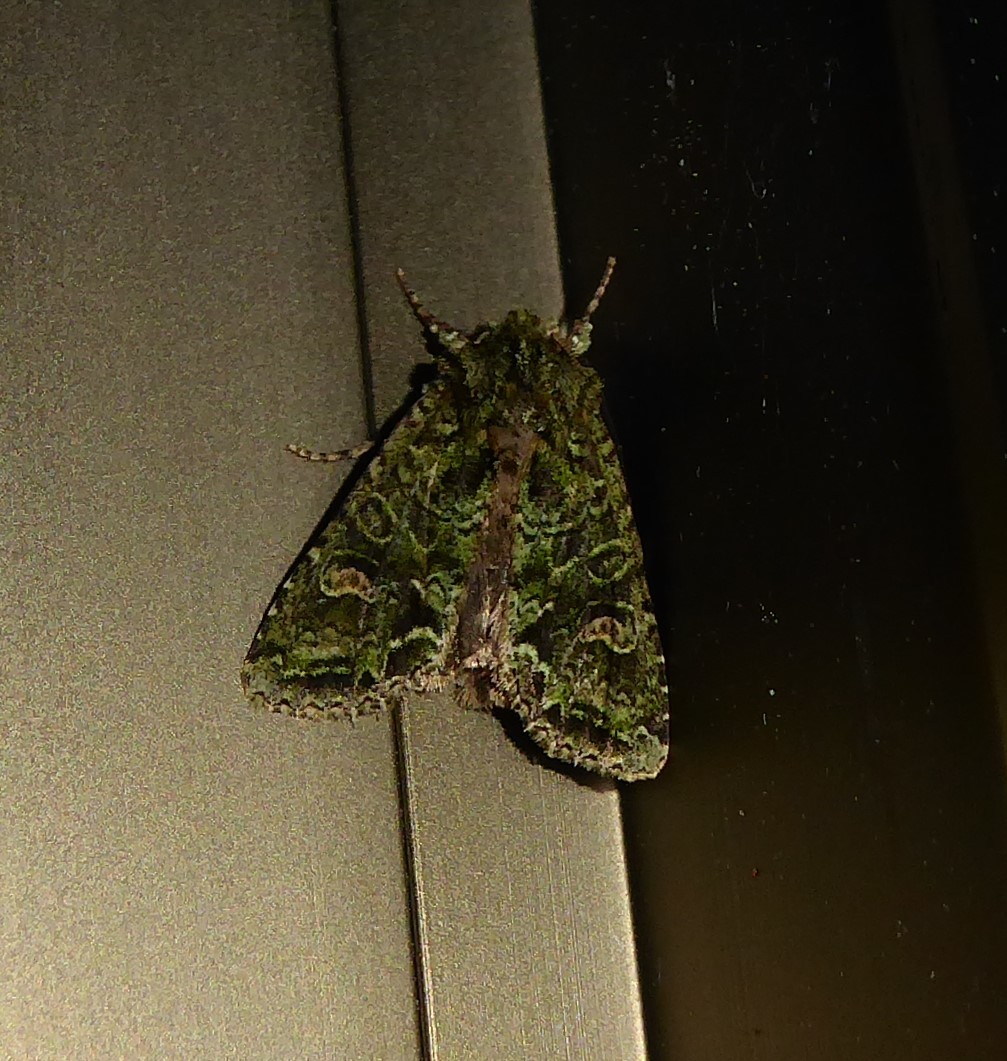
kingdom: Animalia
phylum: Arthropoda
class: Insecta
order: Lepidoptera
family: Noctuidae
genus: Ichneutica
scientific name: Ichneutica
